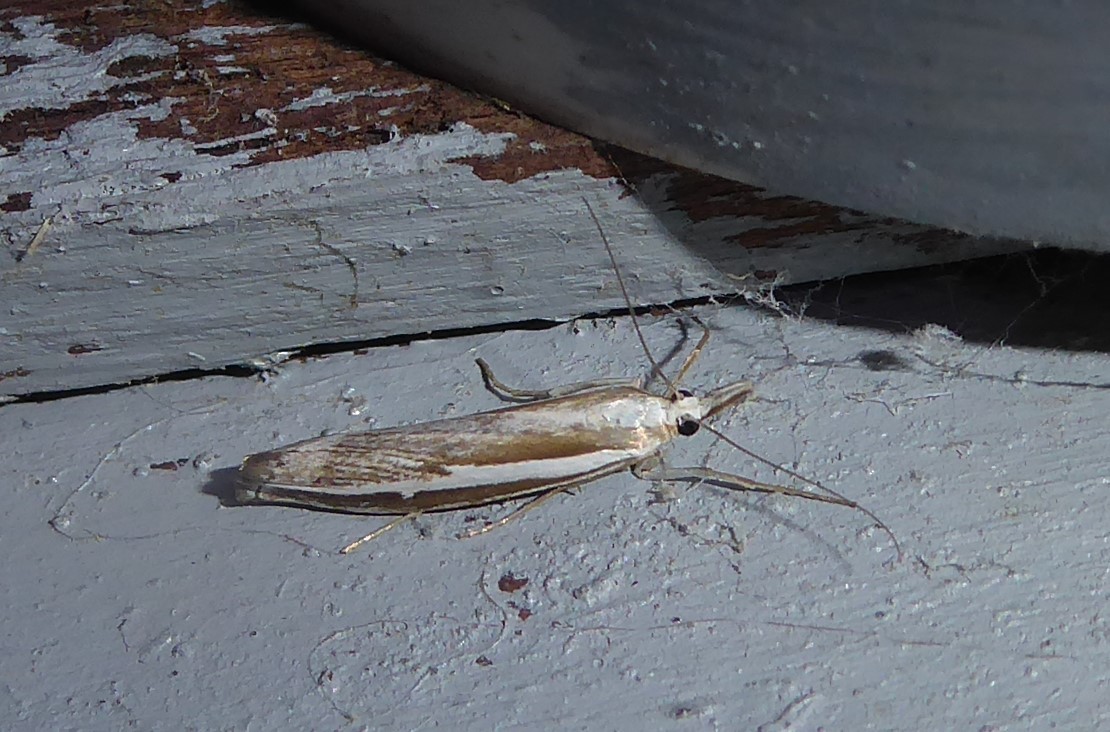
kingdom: Animalia
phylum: Arthropoda
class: Insecta
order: Lepidoptera
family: Crambidae
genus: Orocrambus
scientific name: Orocrambus vittellus
